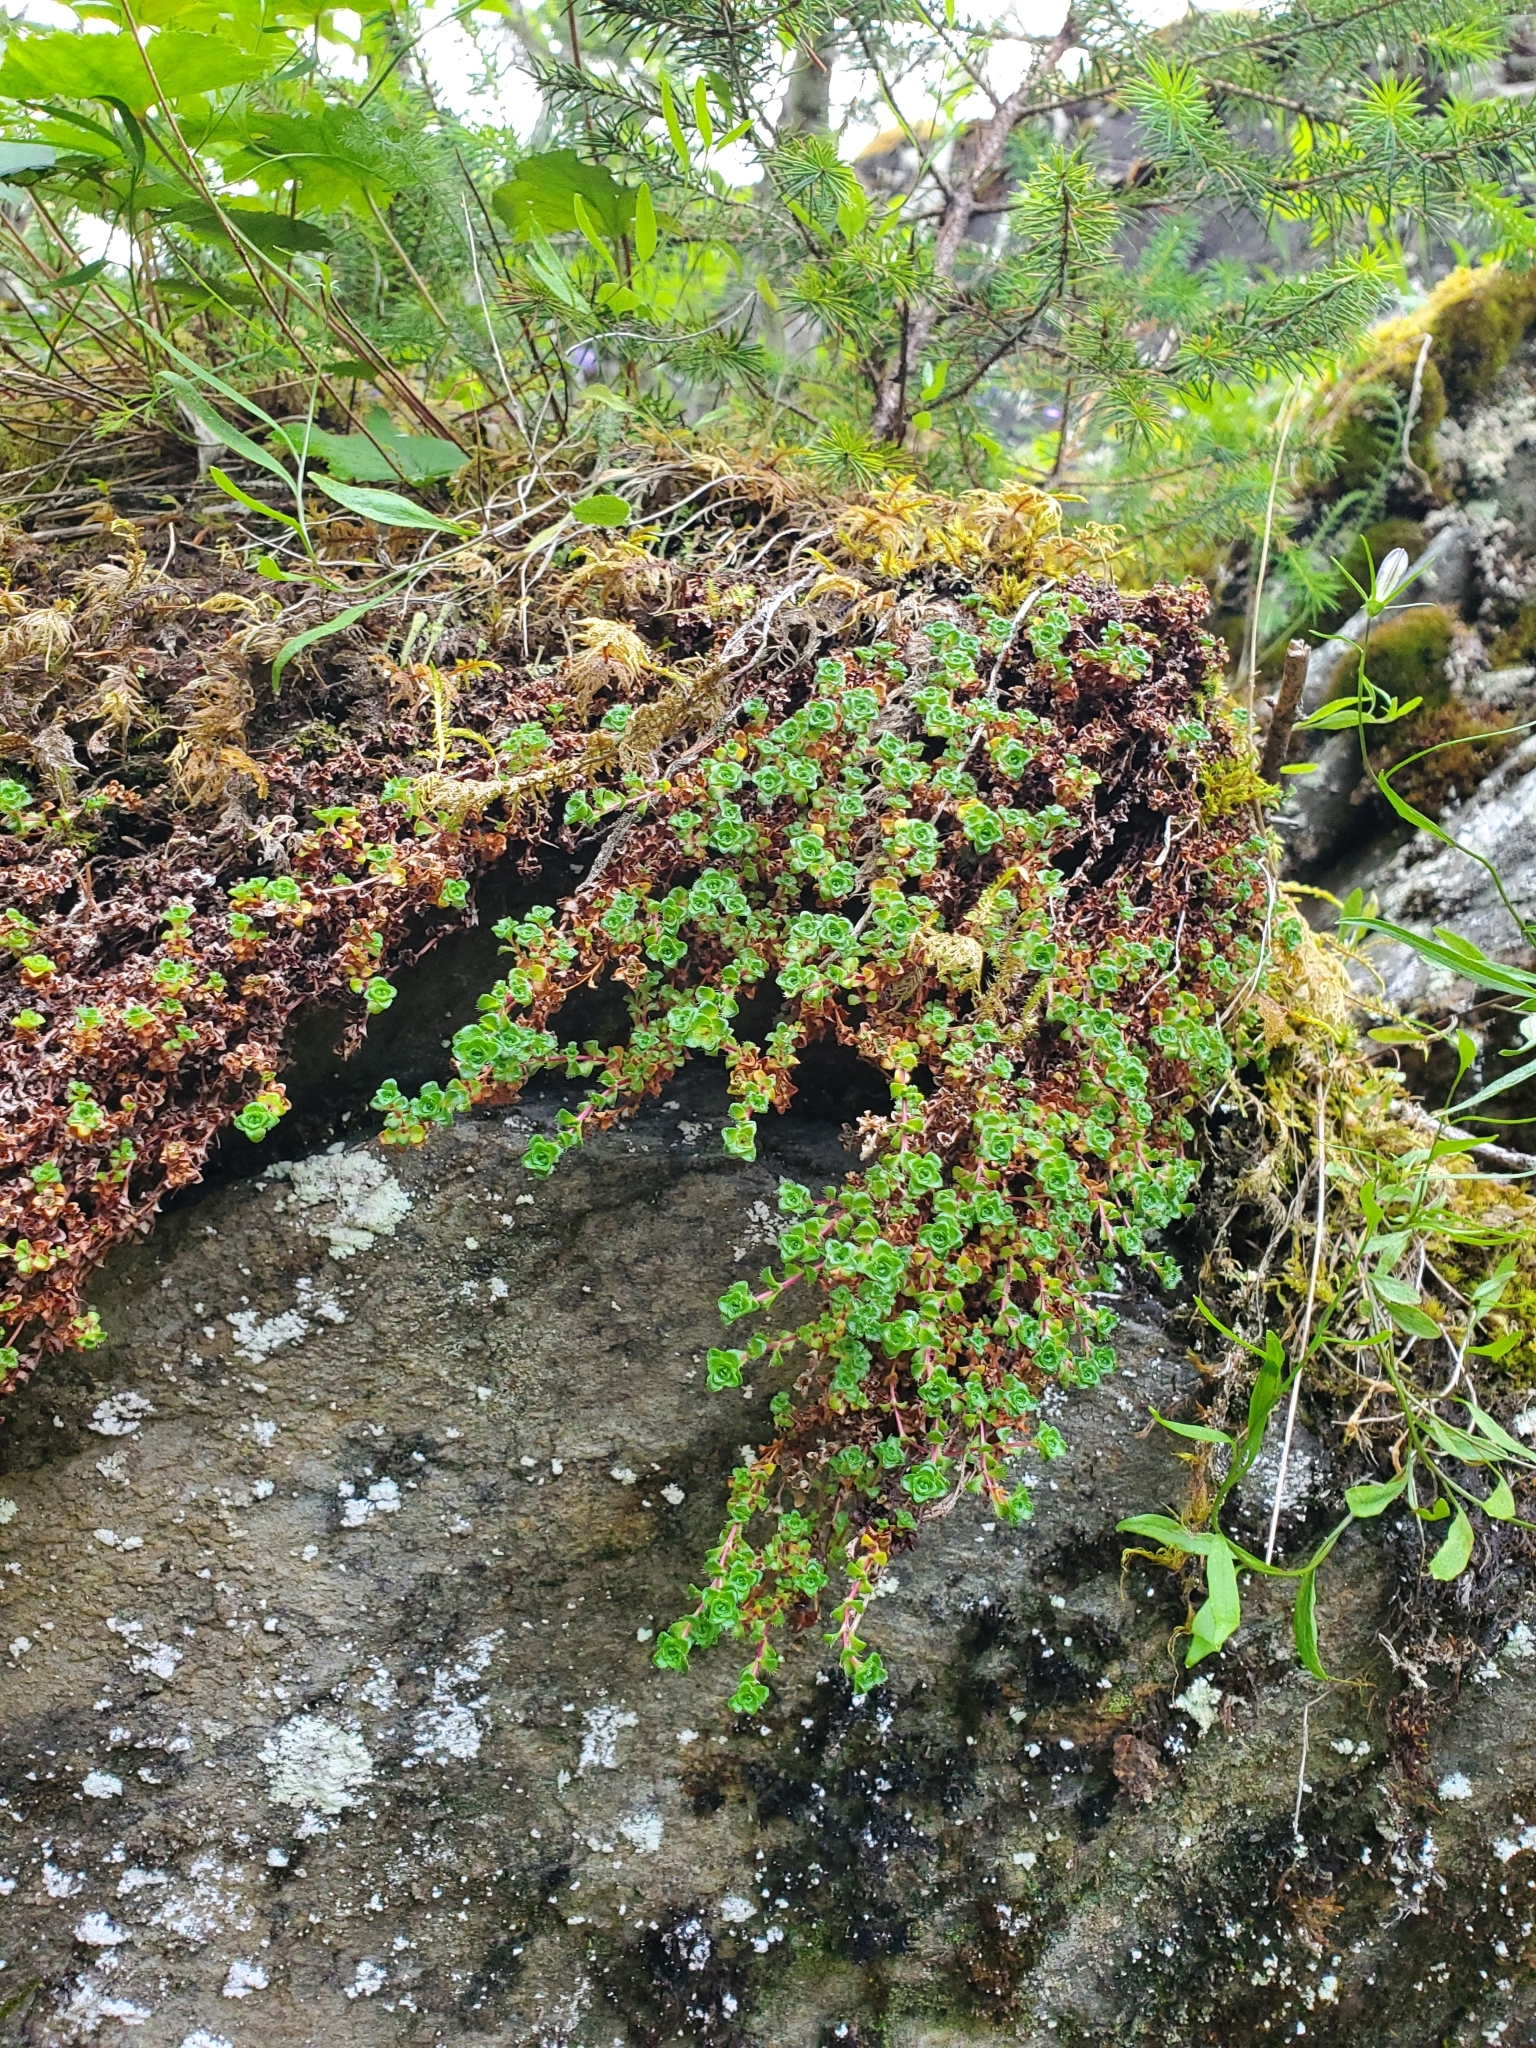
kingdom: Plantae
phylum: Tracheophyta
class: Magnoliopsida
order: Saxifragales
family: Saxifragaceae
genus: Saxifraga
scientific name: Saxifraga oppositifolia
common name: Purple saxifrage
